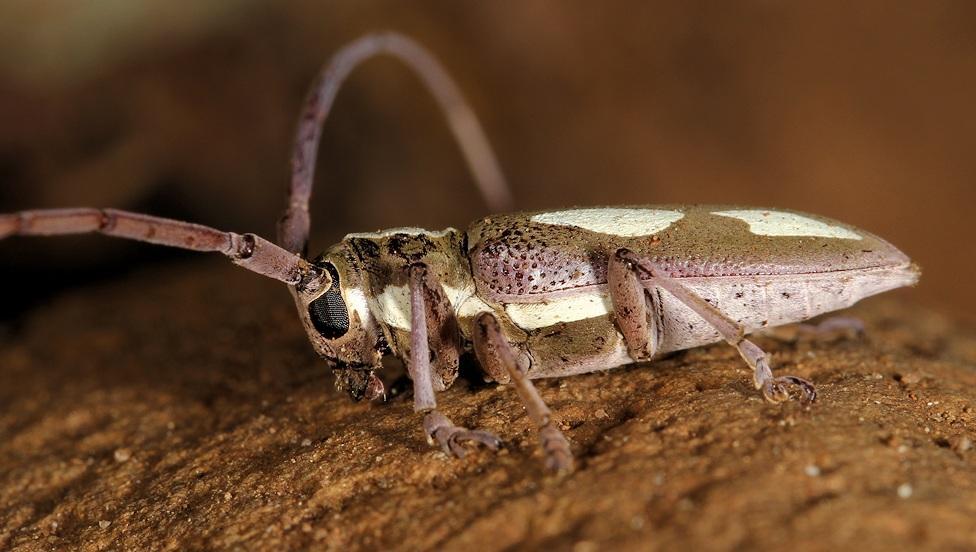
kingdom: Animalia
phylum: Arthropoda
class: Insecta
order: Coleoptera
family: Cerambycidae
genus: Prosopocera
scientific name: Prosopocera paykullii
